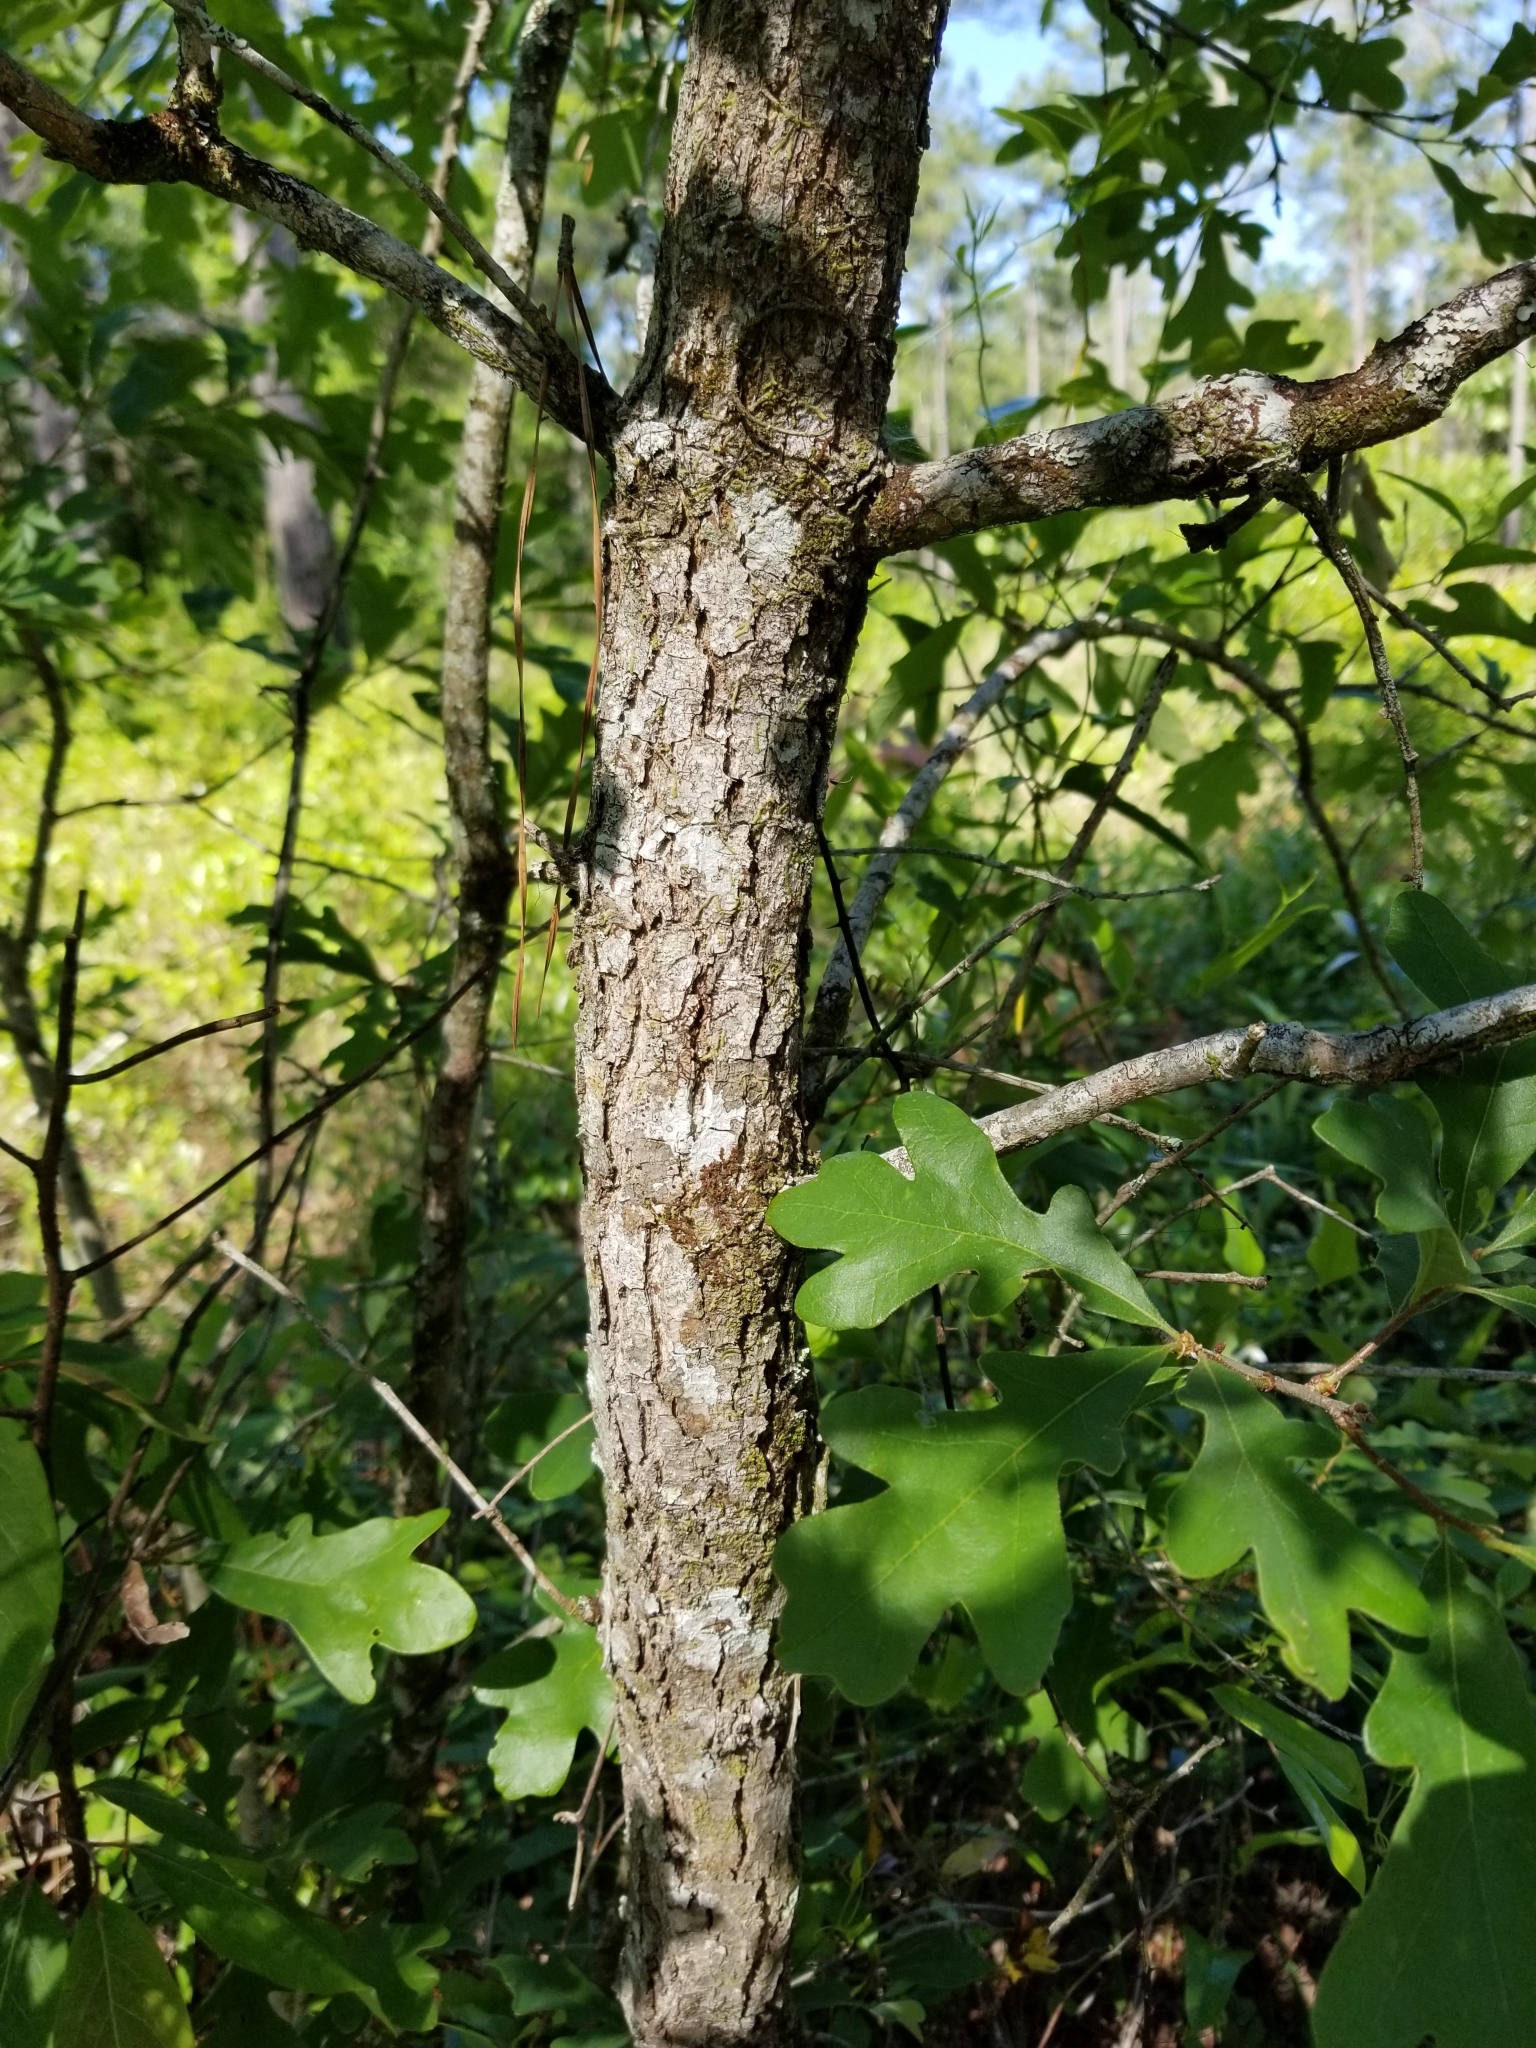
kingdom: Plantae
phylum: Tracheophyta
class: Magnoliopsida
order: Fagales
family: Fagaceae
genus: Quercus
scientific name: Quercus margaretiae
